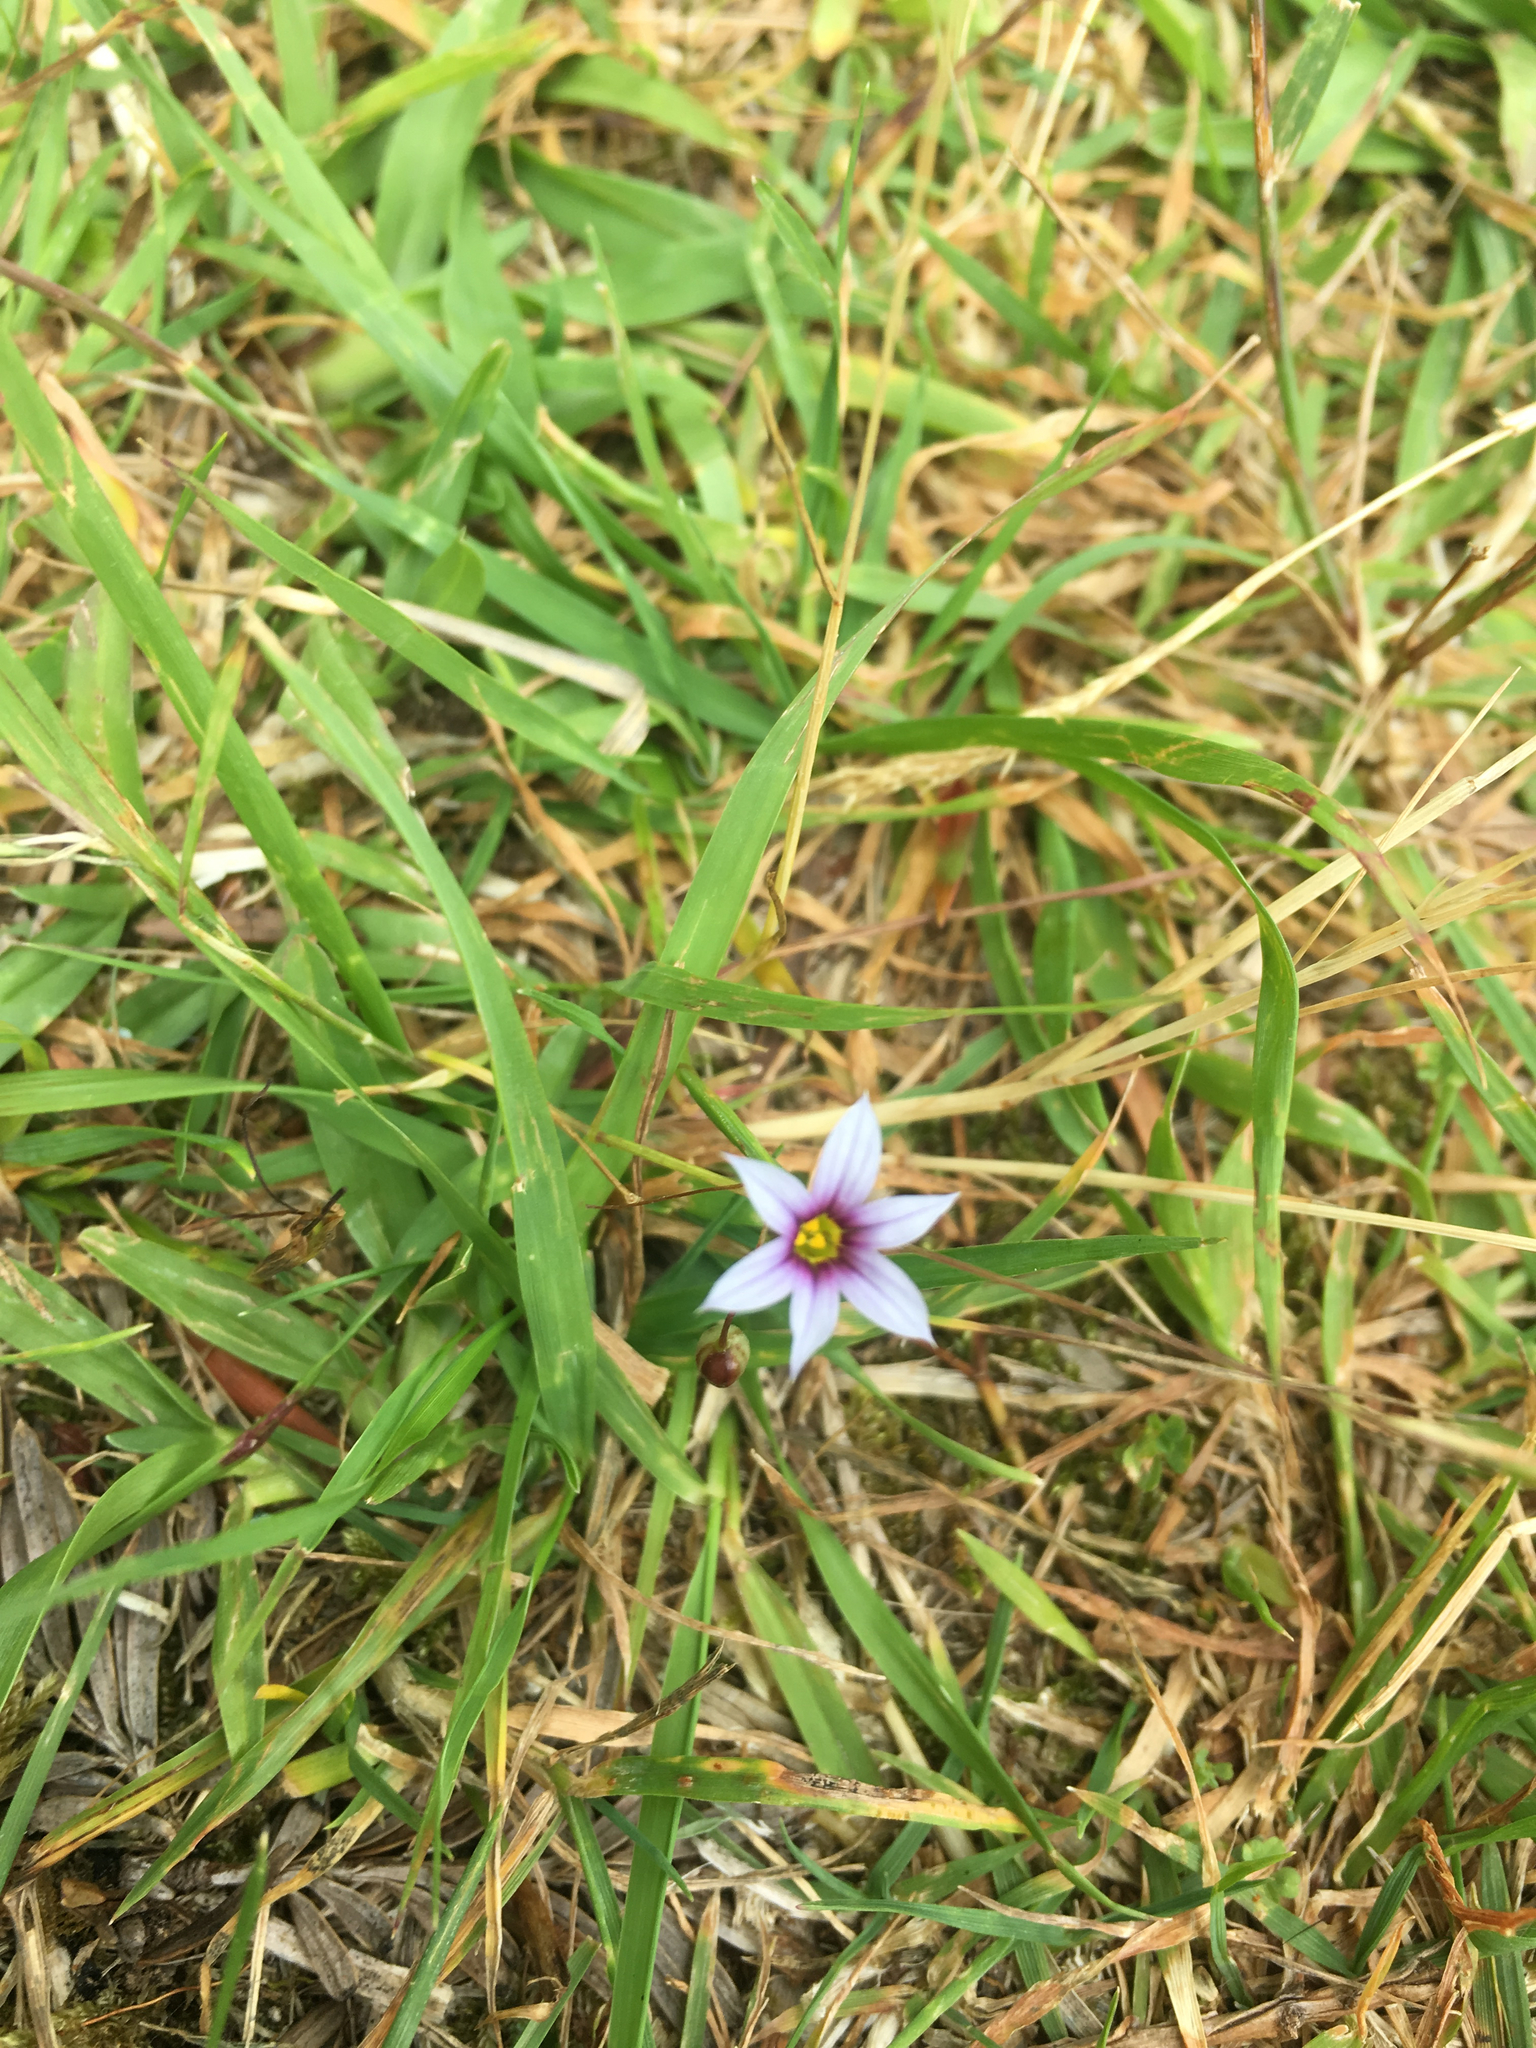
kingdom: Plantae
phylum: Tracheophyta
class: Liliopsida
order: Asparagales
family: Iridaceae
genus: Sisyrinchium
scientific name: Sisyrinchium micranthum
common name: Bermuda pigroot
